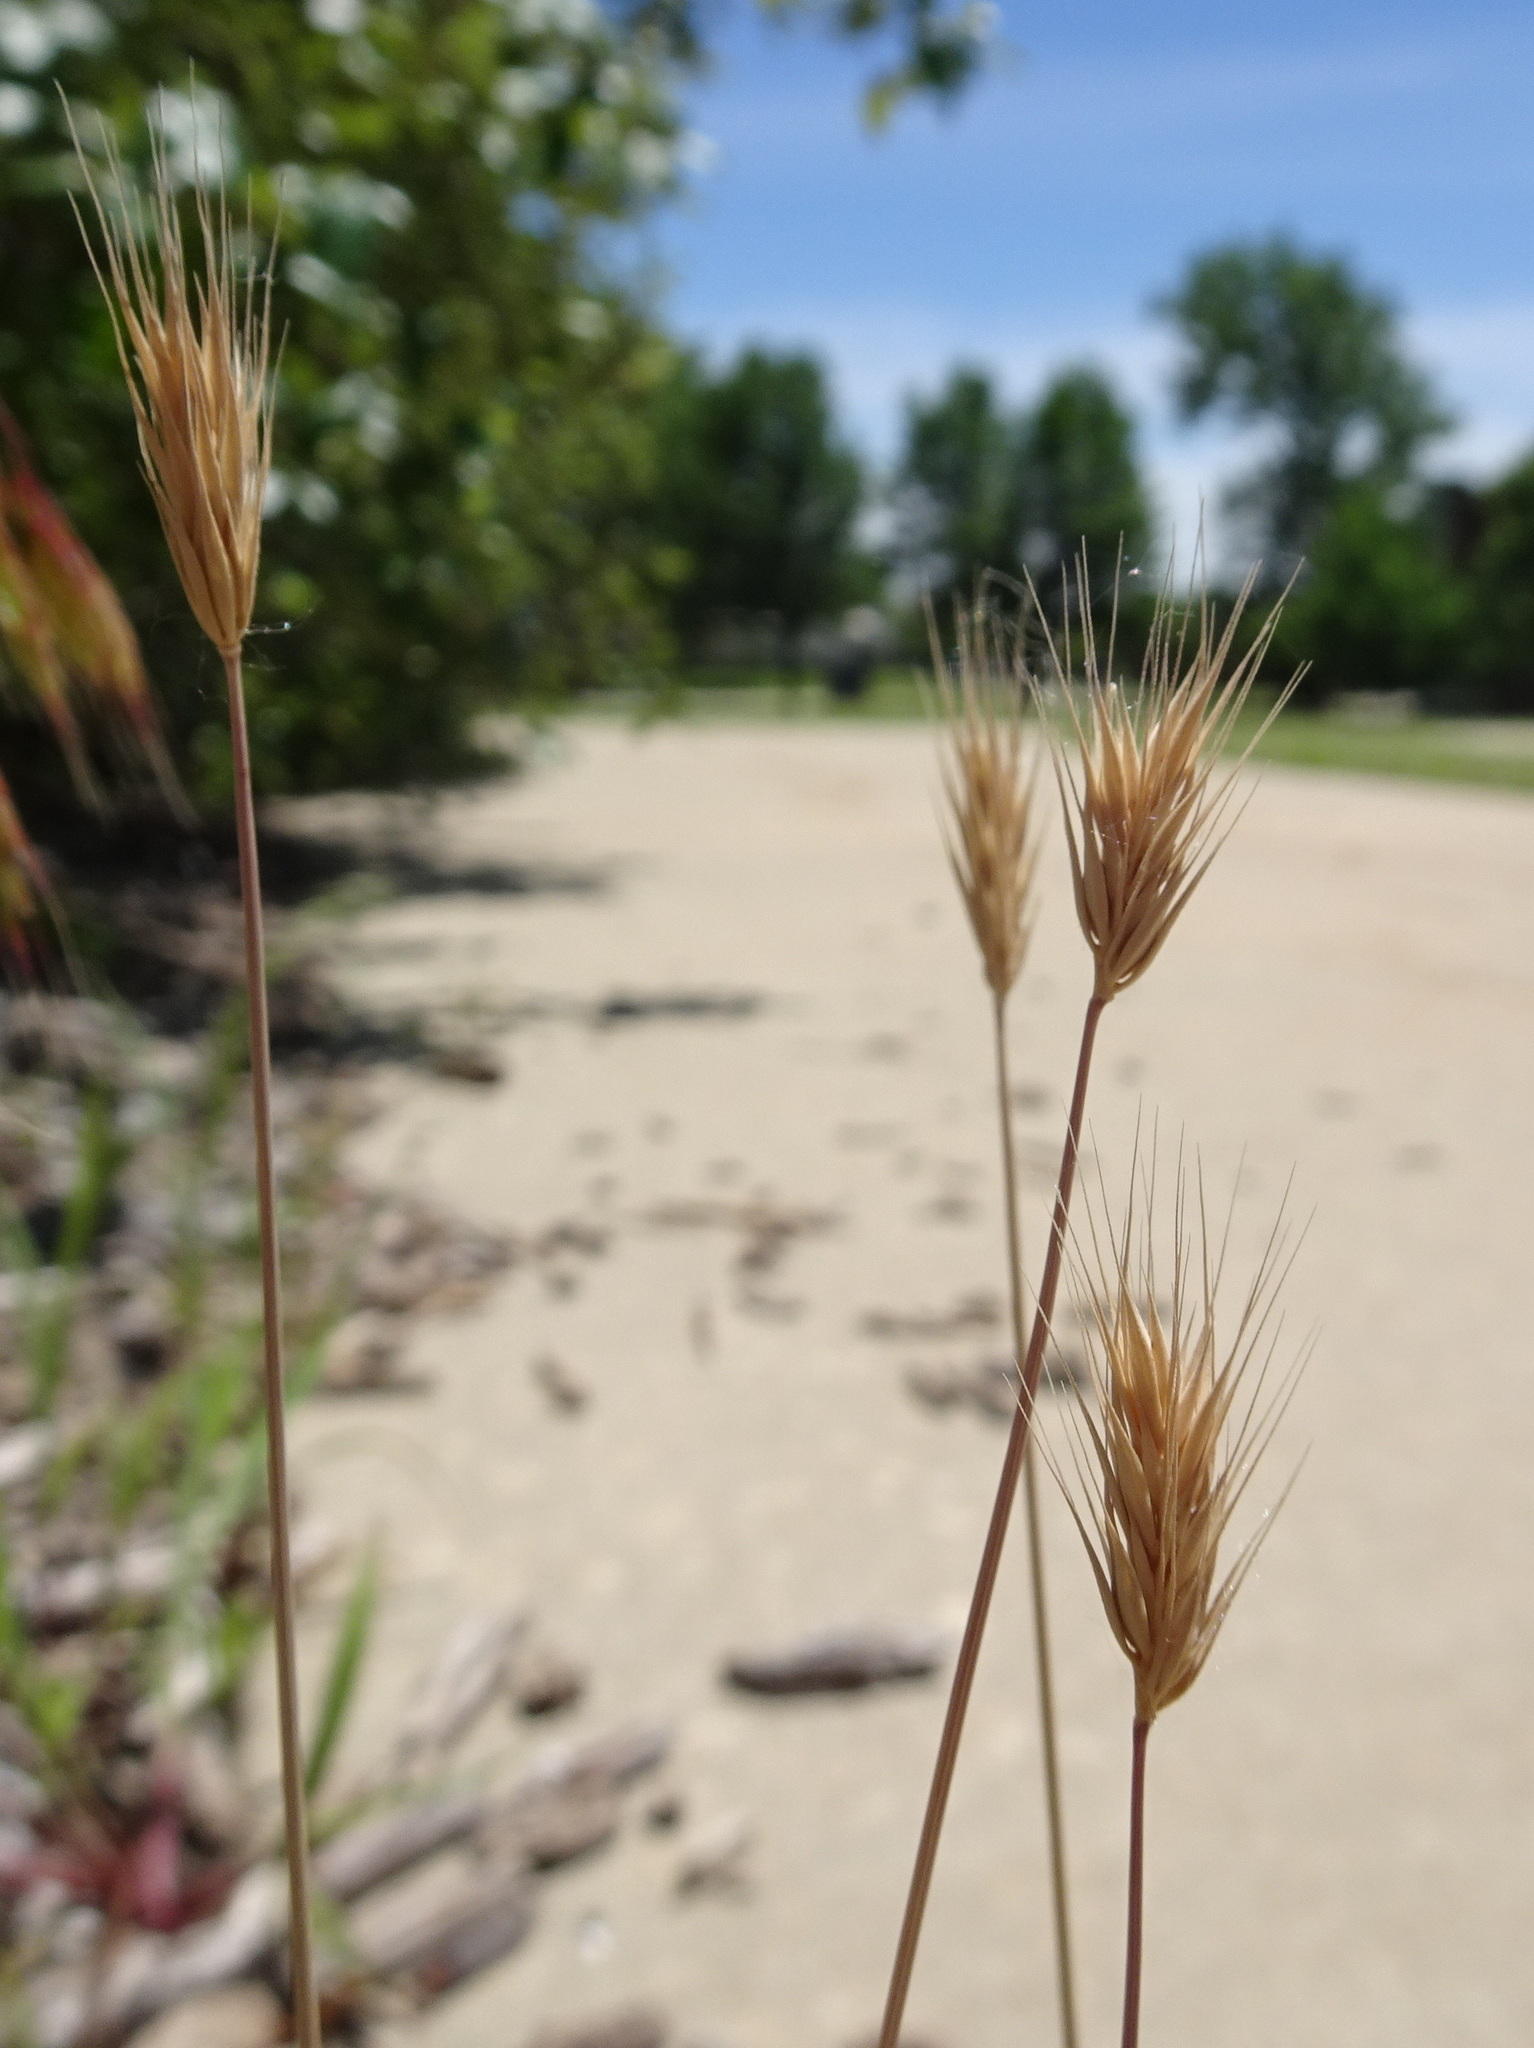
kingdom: Plantae
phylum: Tracheophyta
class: Liliopsida
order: Poales
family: Poaceae
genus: Hordeum
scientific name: Hordeum pusillum
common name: Little barley
